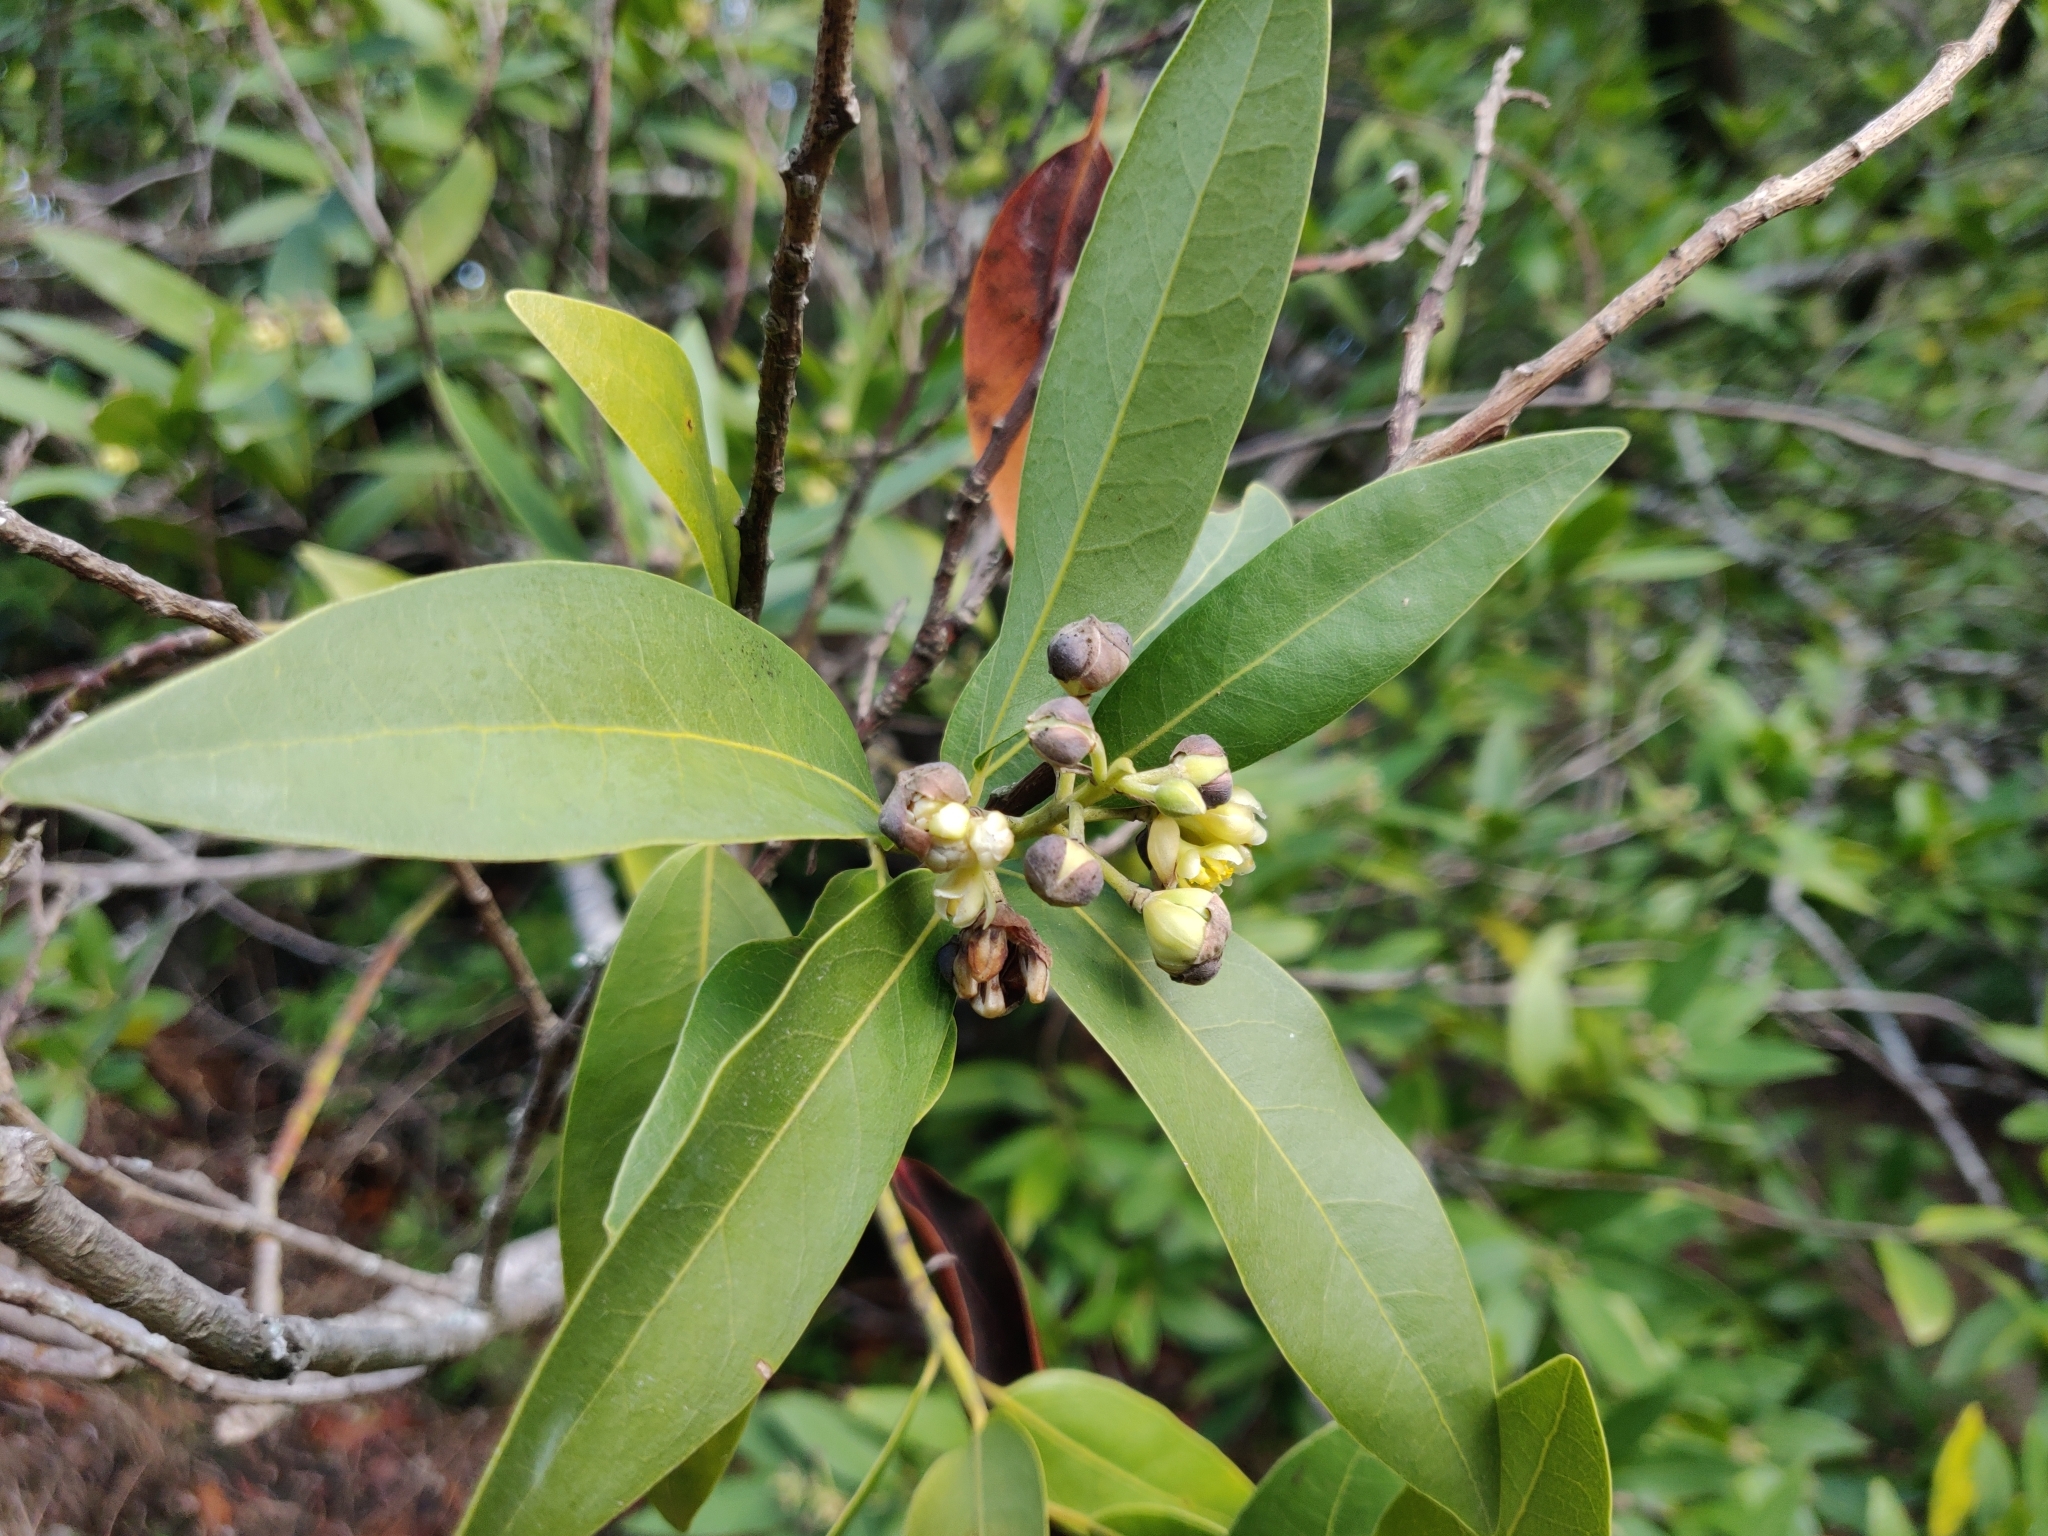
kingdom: Plantae
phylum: Tracheophyta
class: Magnoliopsida
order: Laurales
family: Lauraceae
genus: Umbellularia
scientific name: Umbellularia californica
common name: California bay
